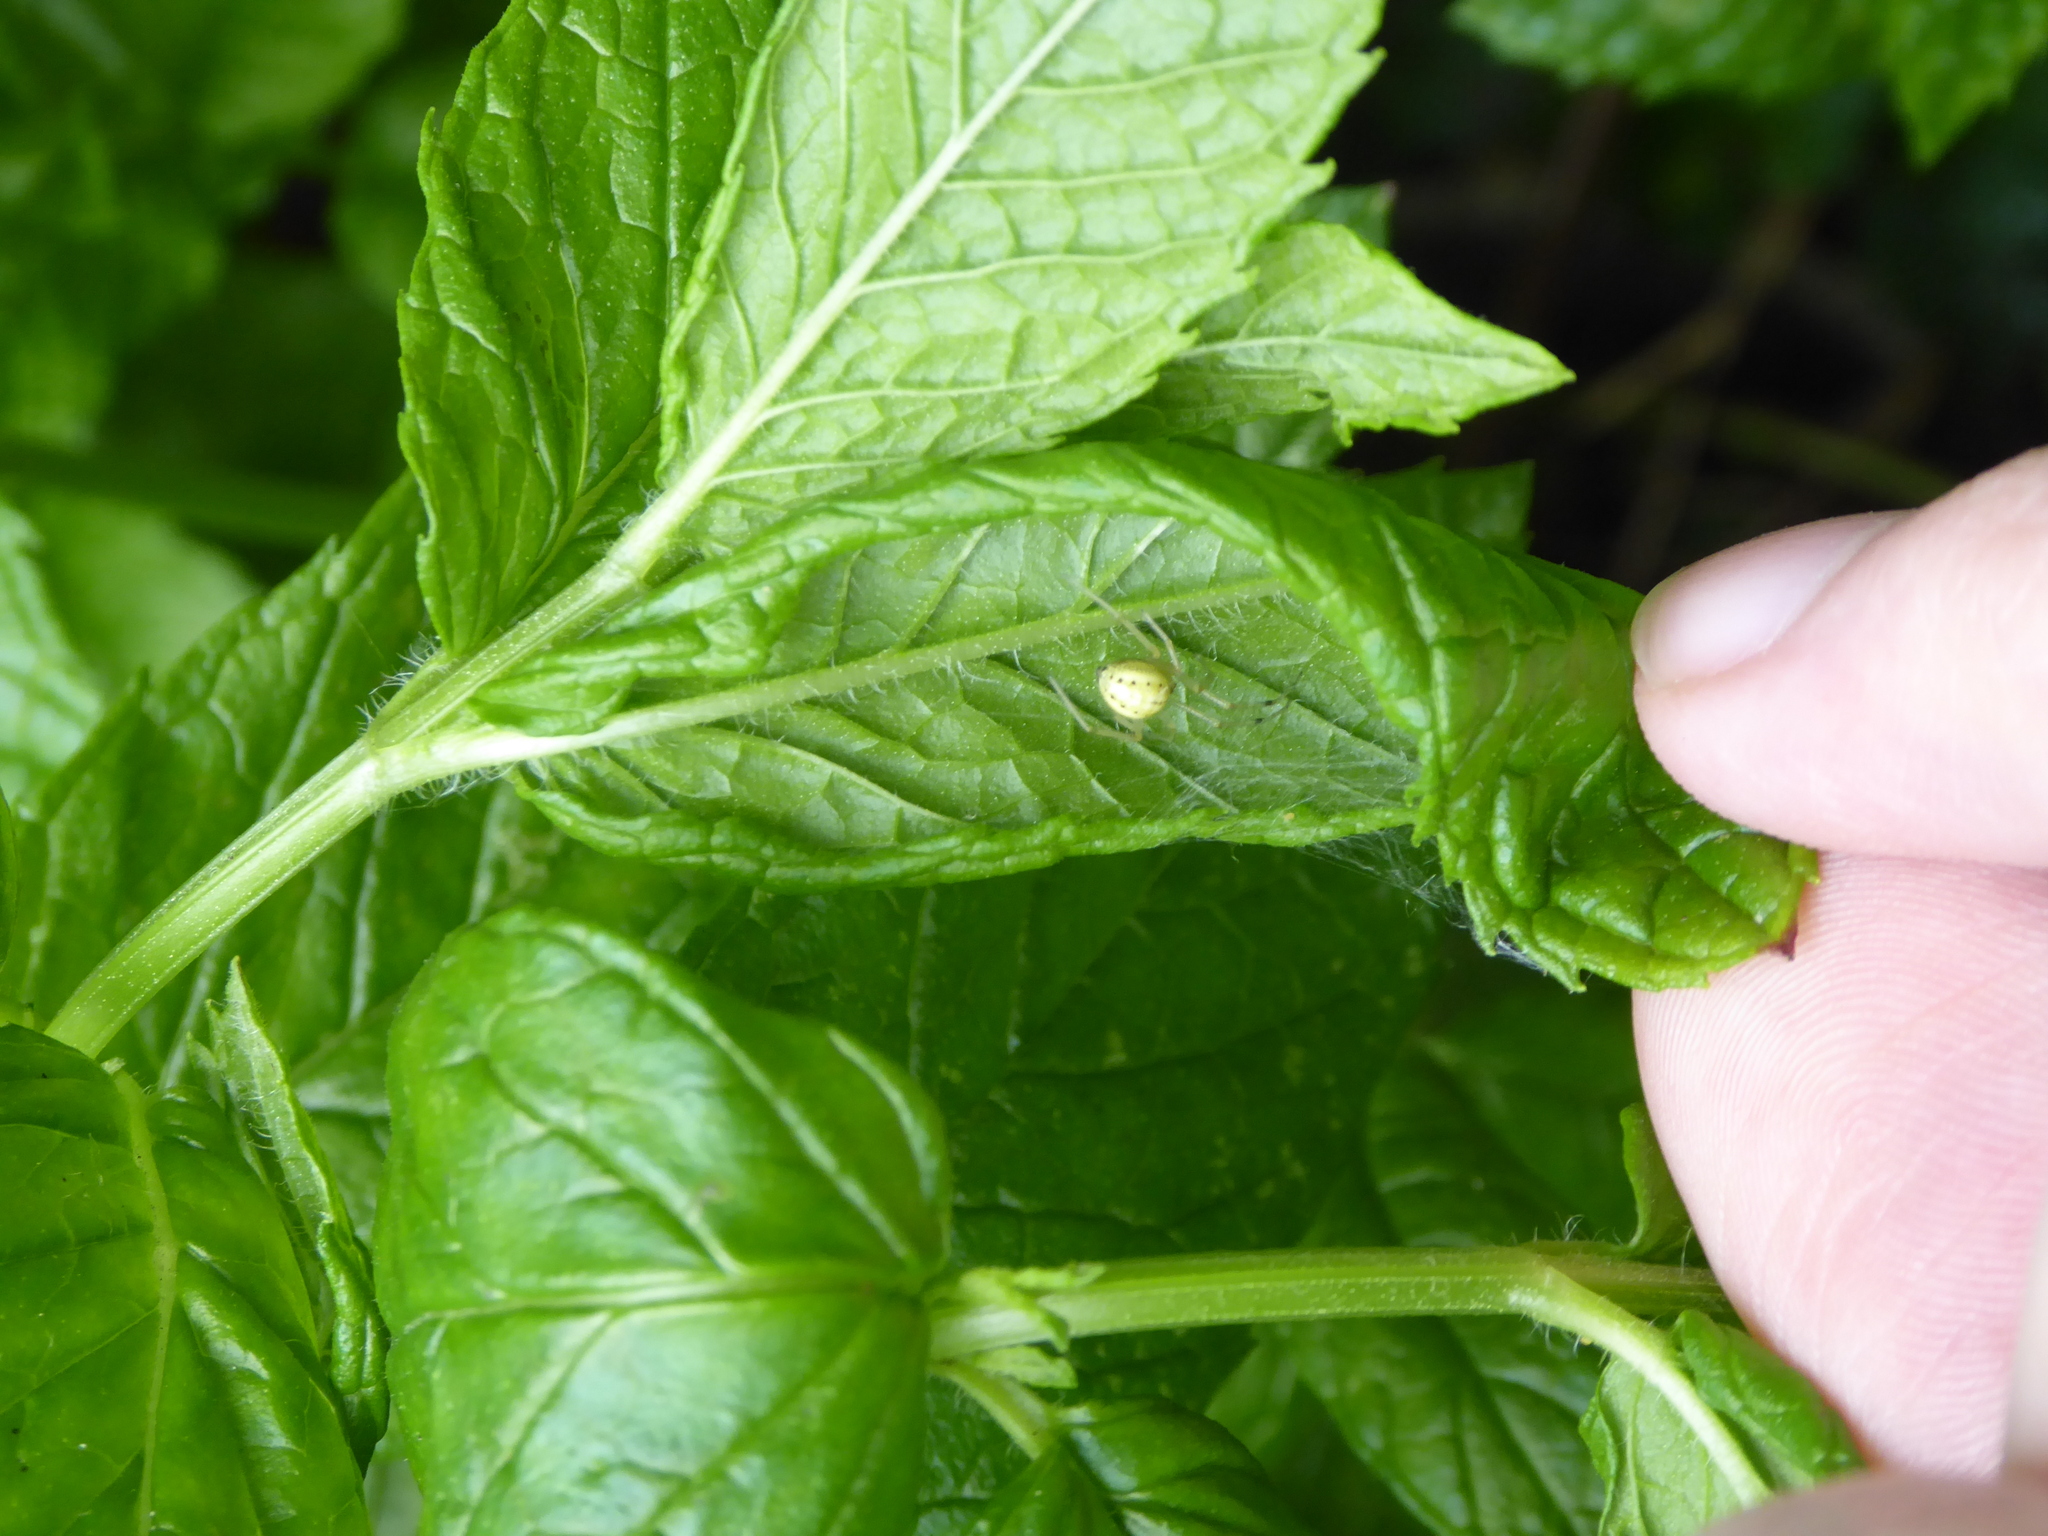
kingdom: Animalia
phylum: Arthropoda
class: Arachnida
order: Araneae
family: Theridiidae
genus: Enoplognatha
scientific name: Enoplognatha
